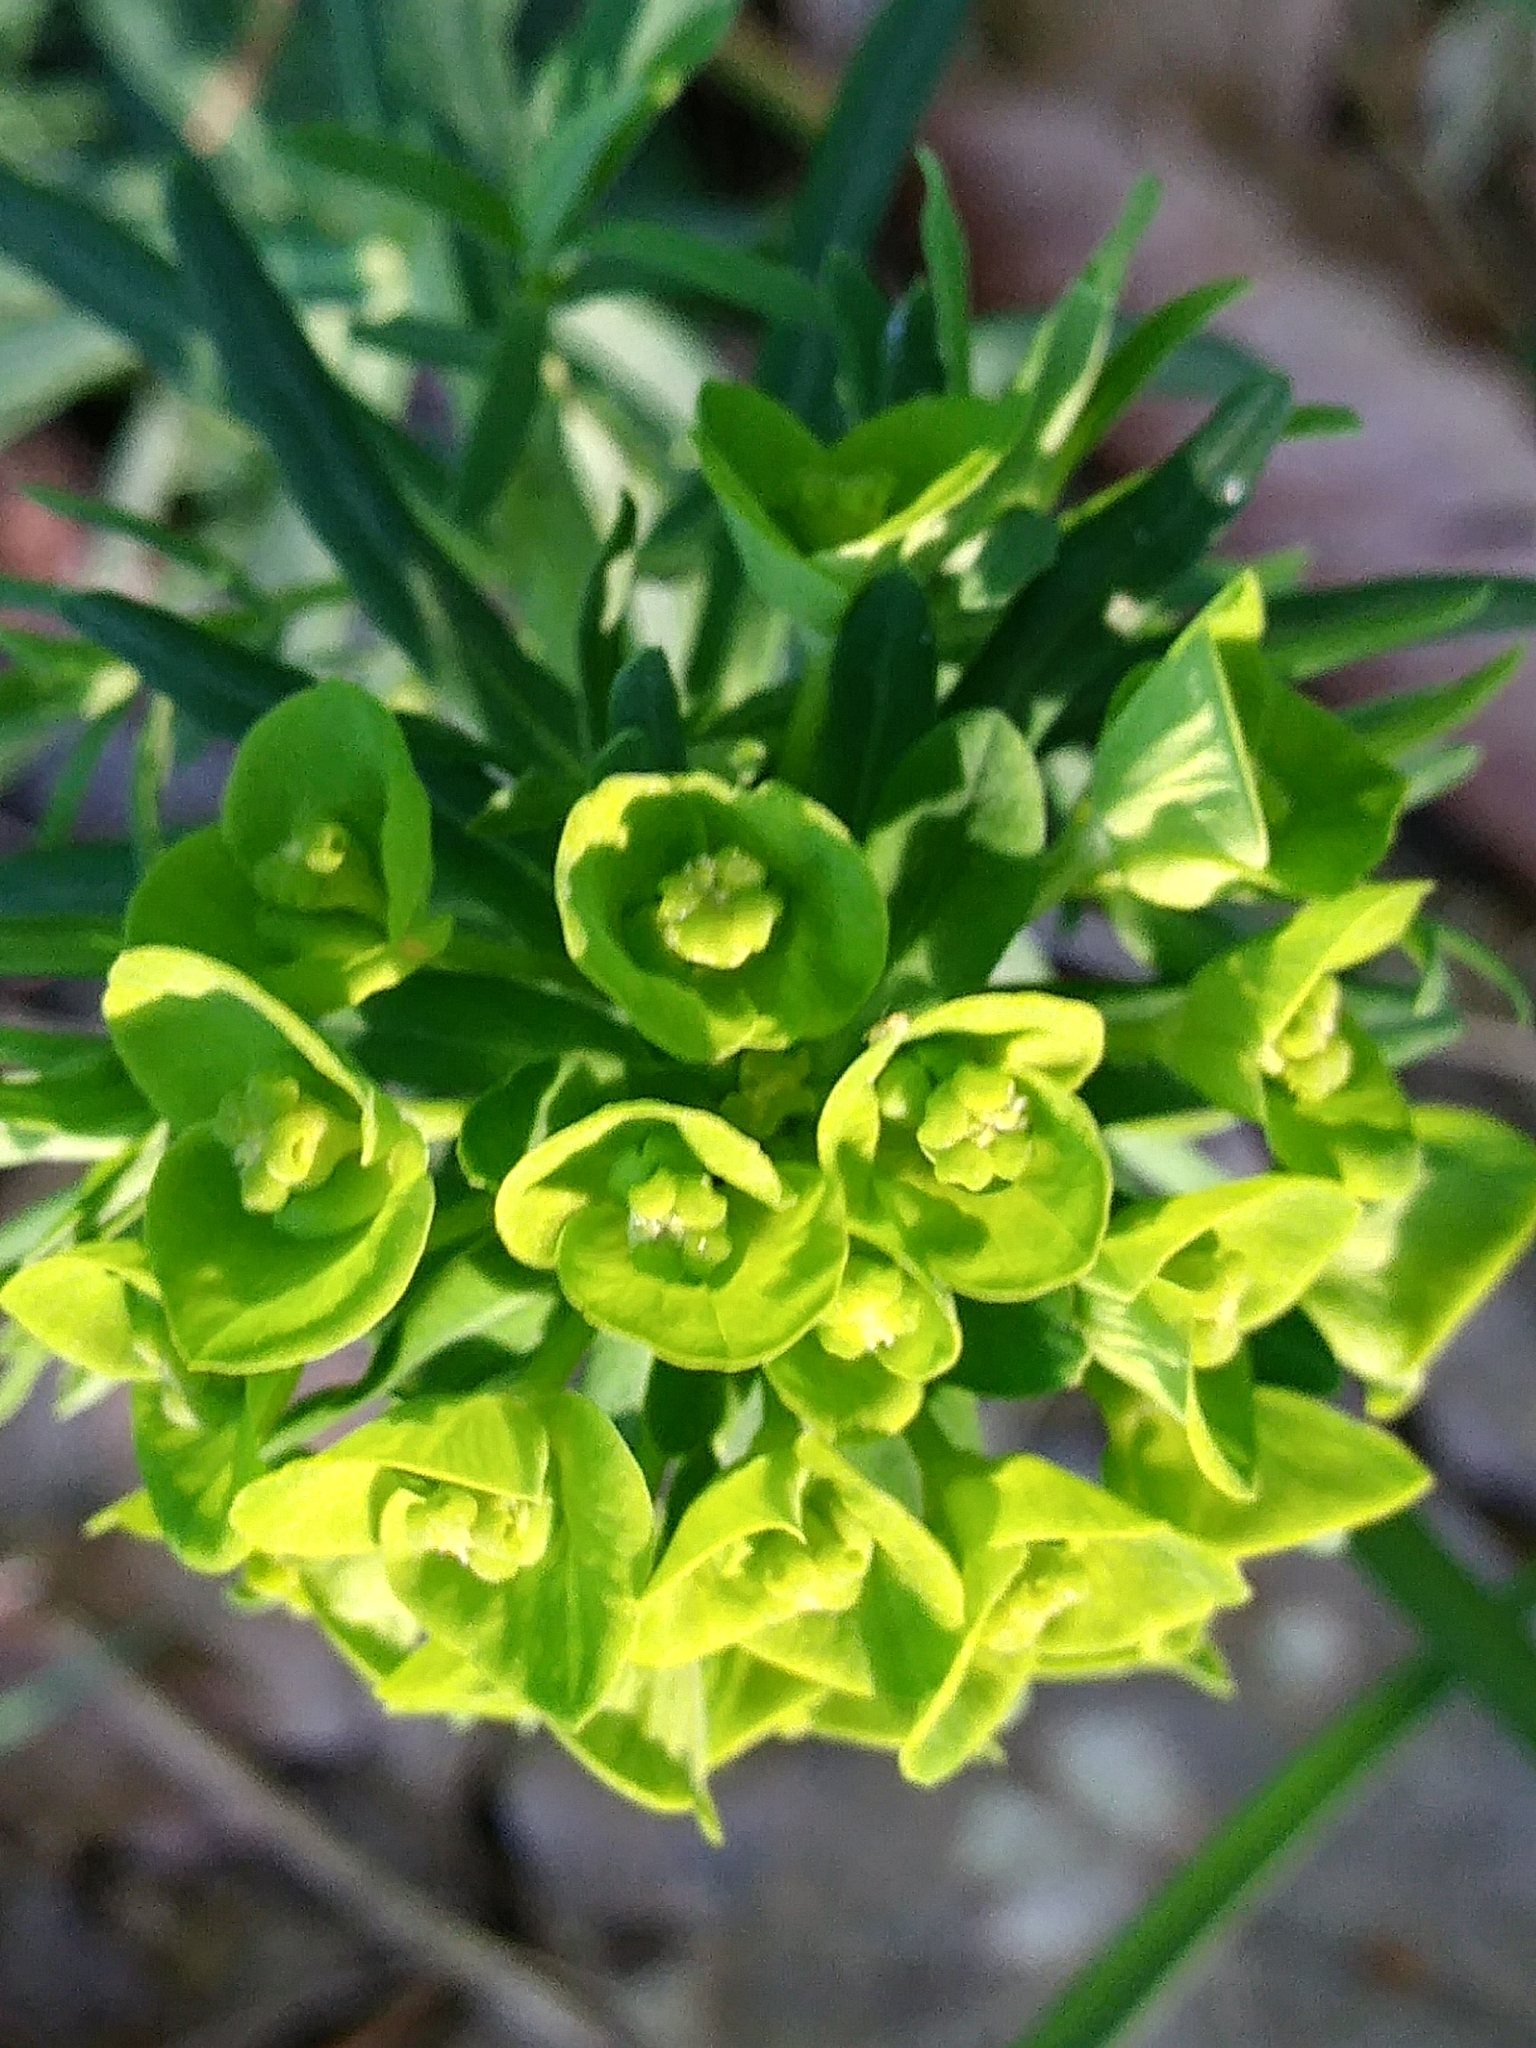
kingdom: Plantae
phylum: Tracheophyta
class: Magnoliopsida
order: Malpighiales
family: Euphorbiaceae
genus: Euphorbia
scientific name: Euphorbia cyparissias
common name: Cypress spurge
